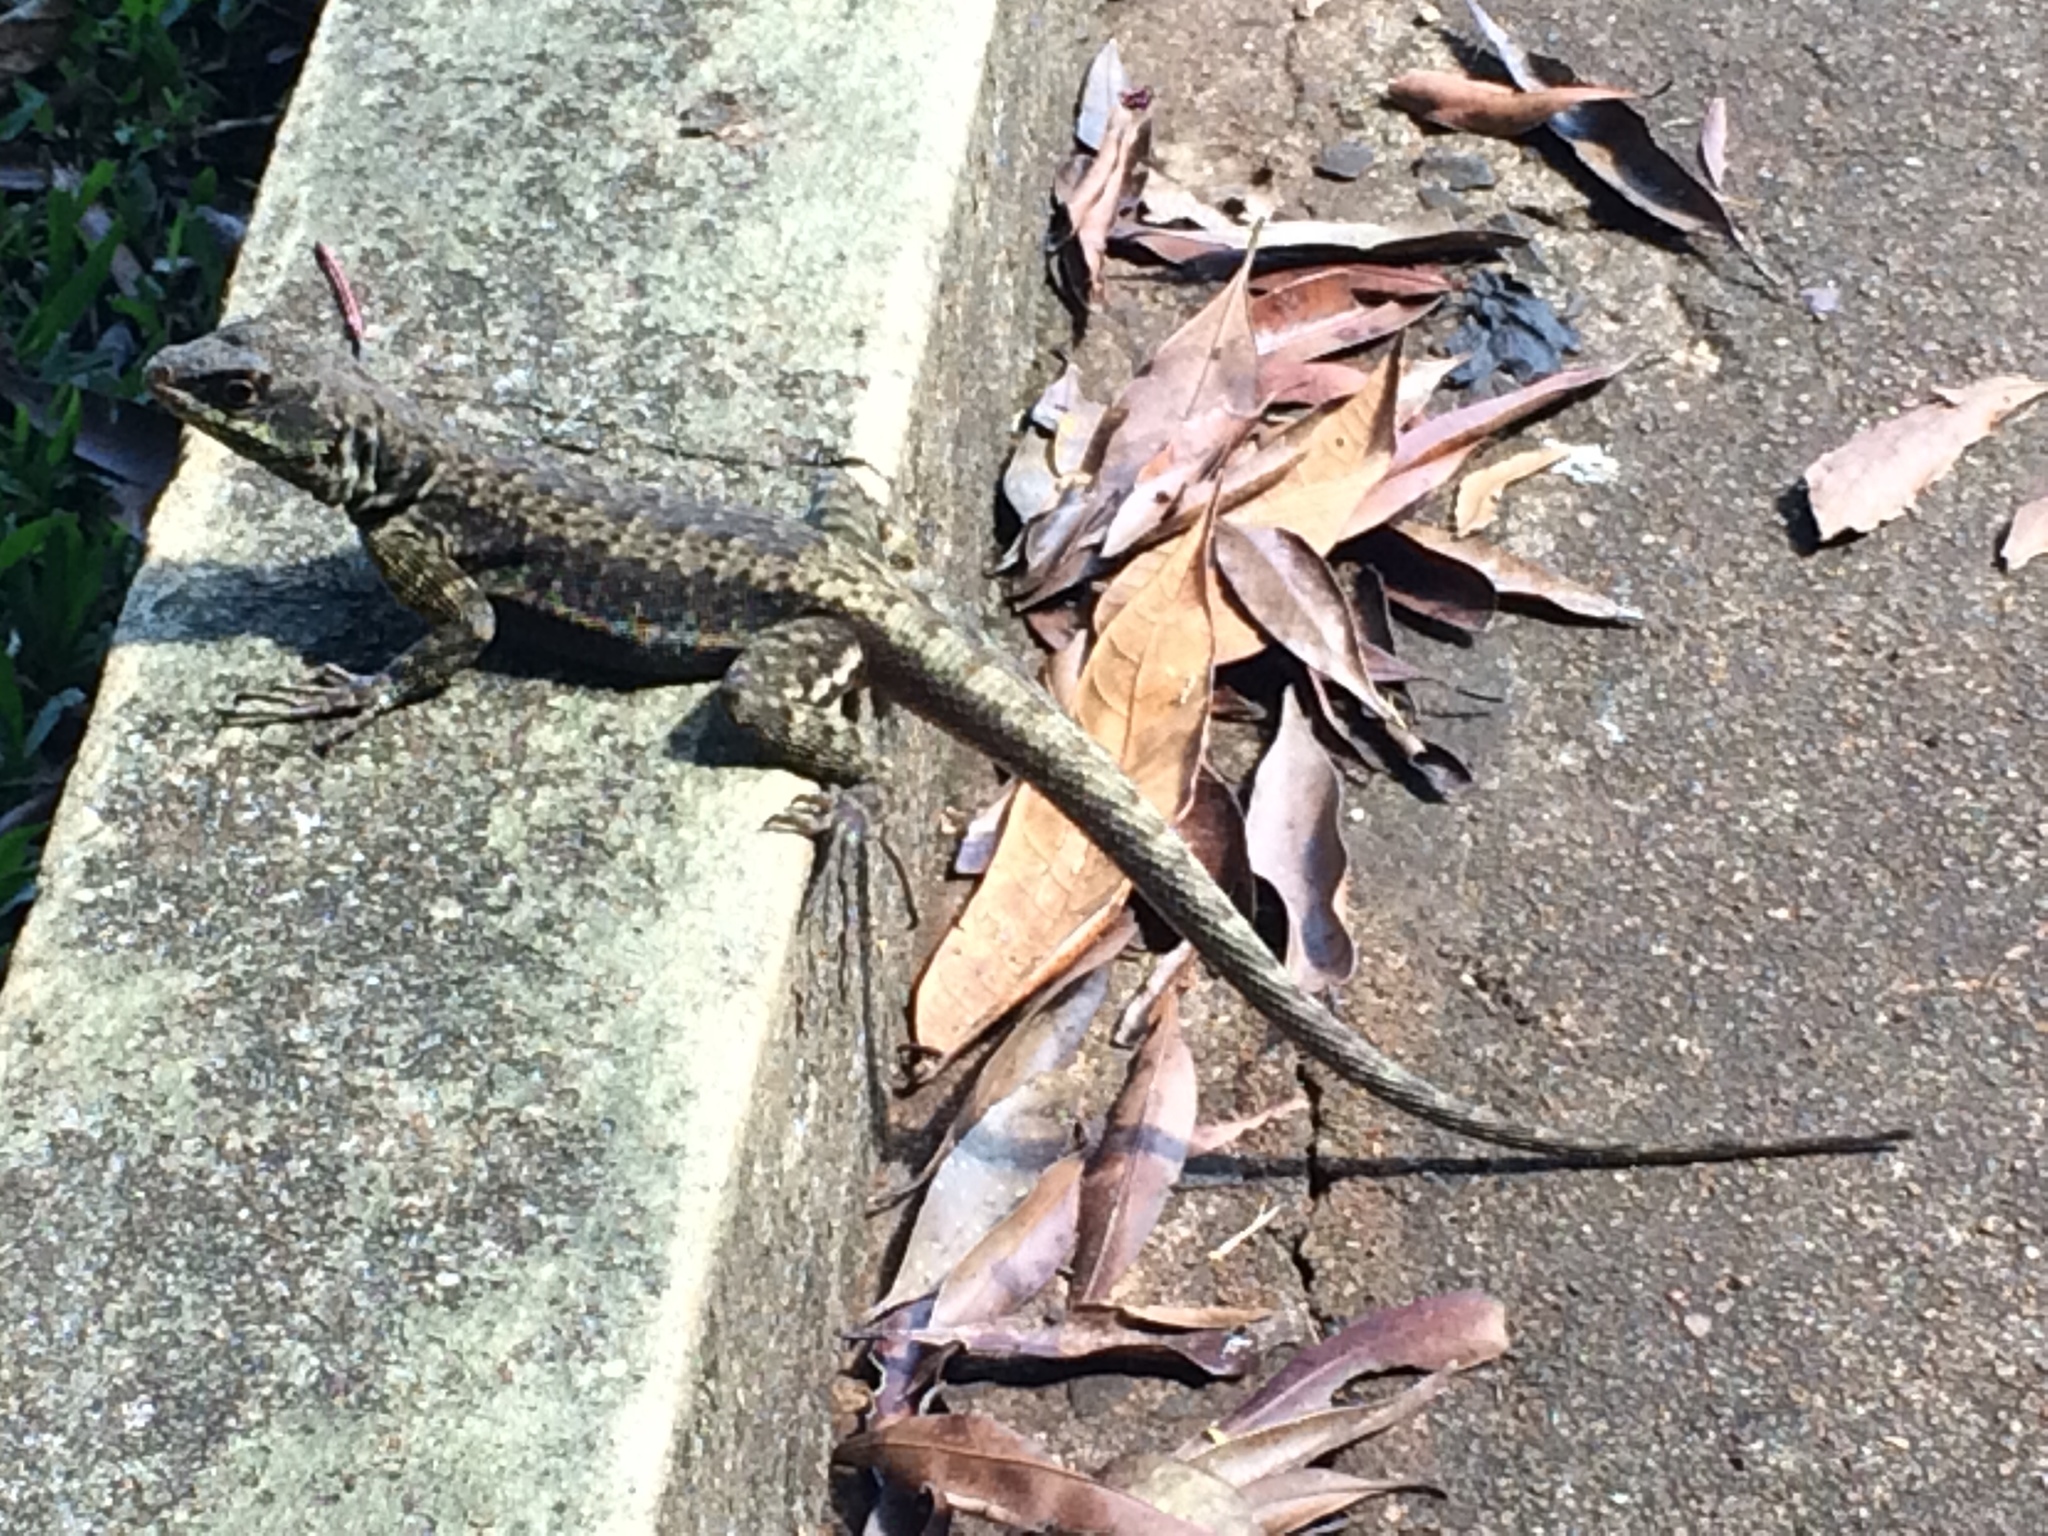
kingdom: Animalia
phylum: Chordata
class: Squamata
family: Tropiduridae
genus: Tropidurus
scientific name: Tropidurus catalanensis
